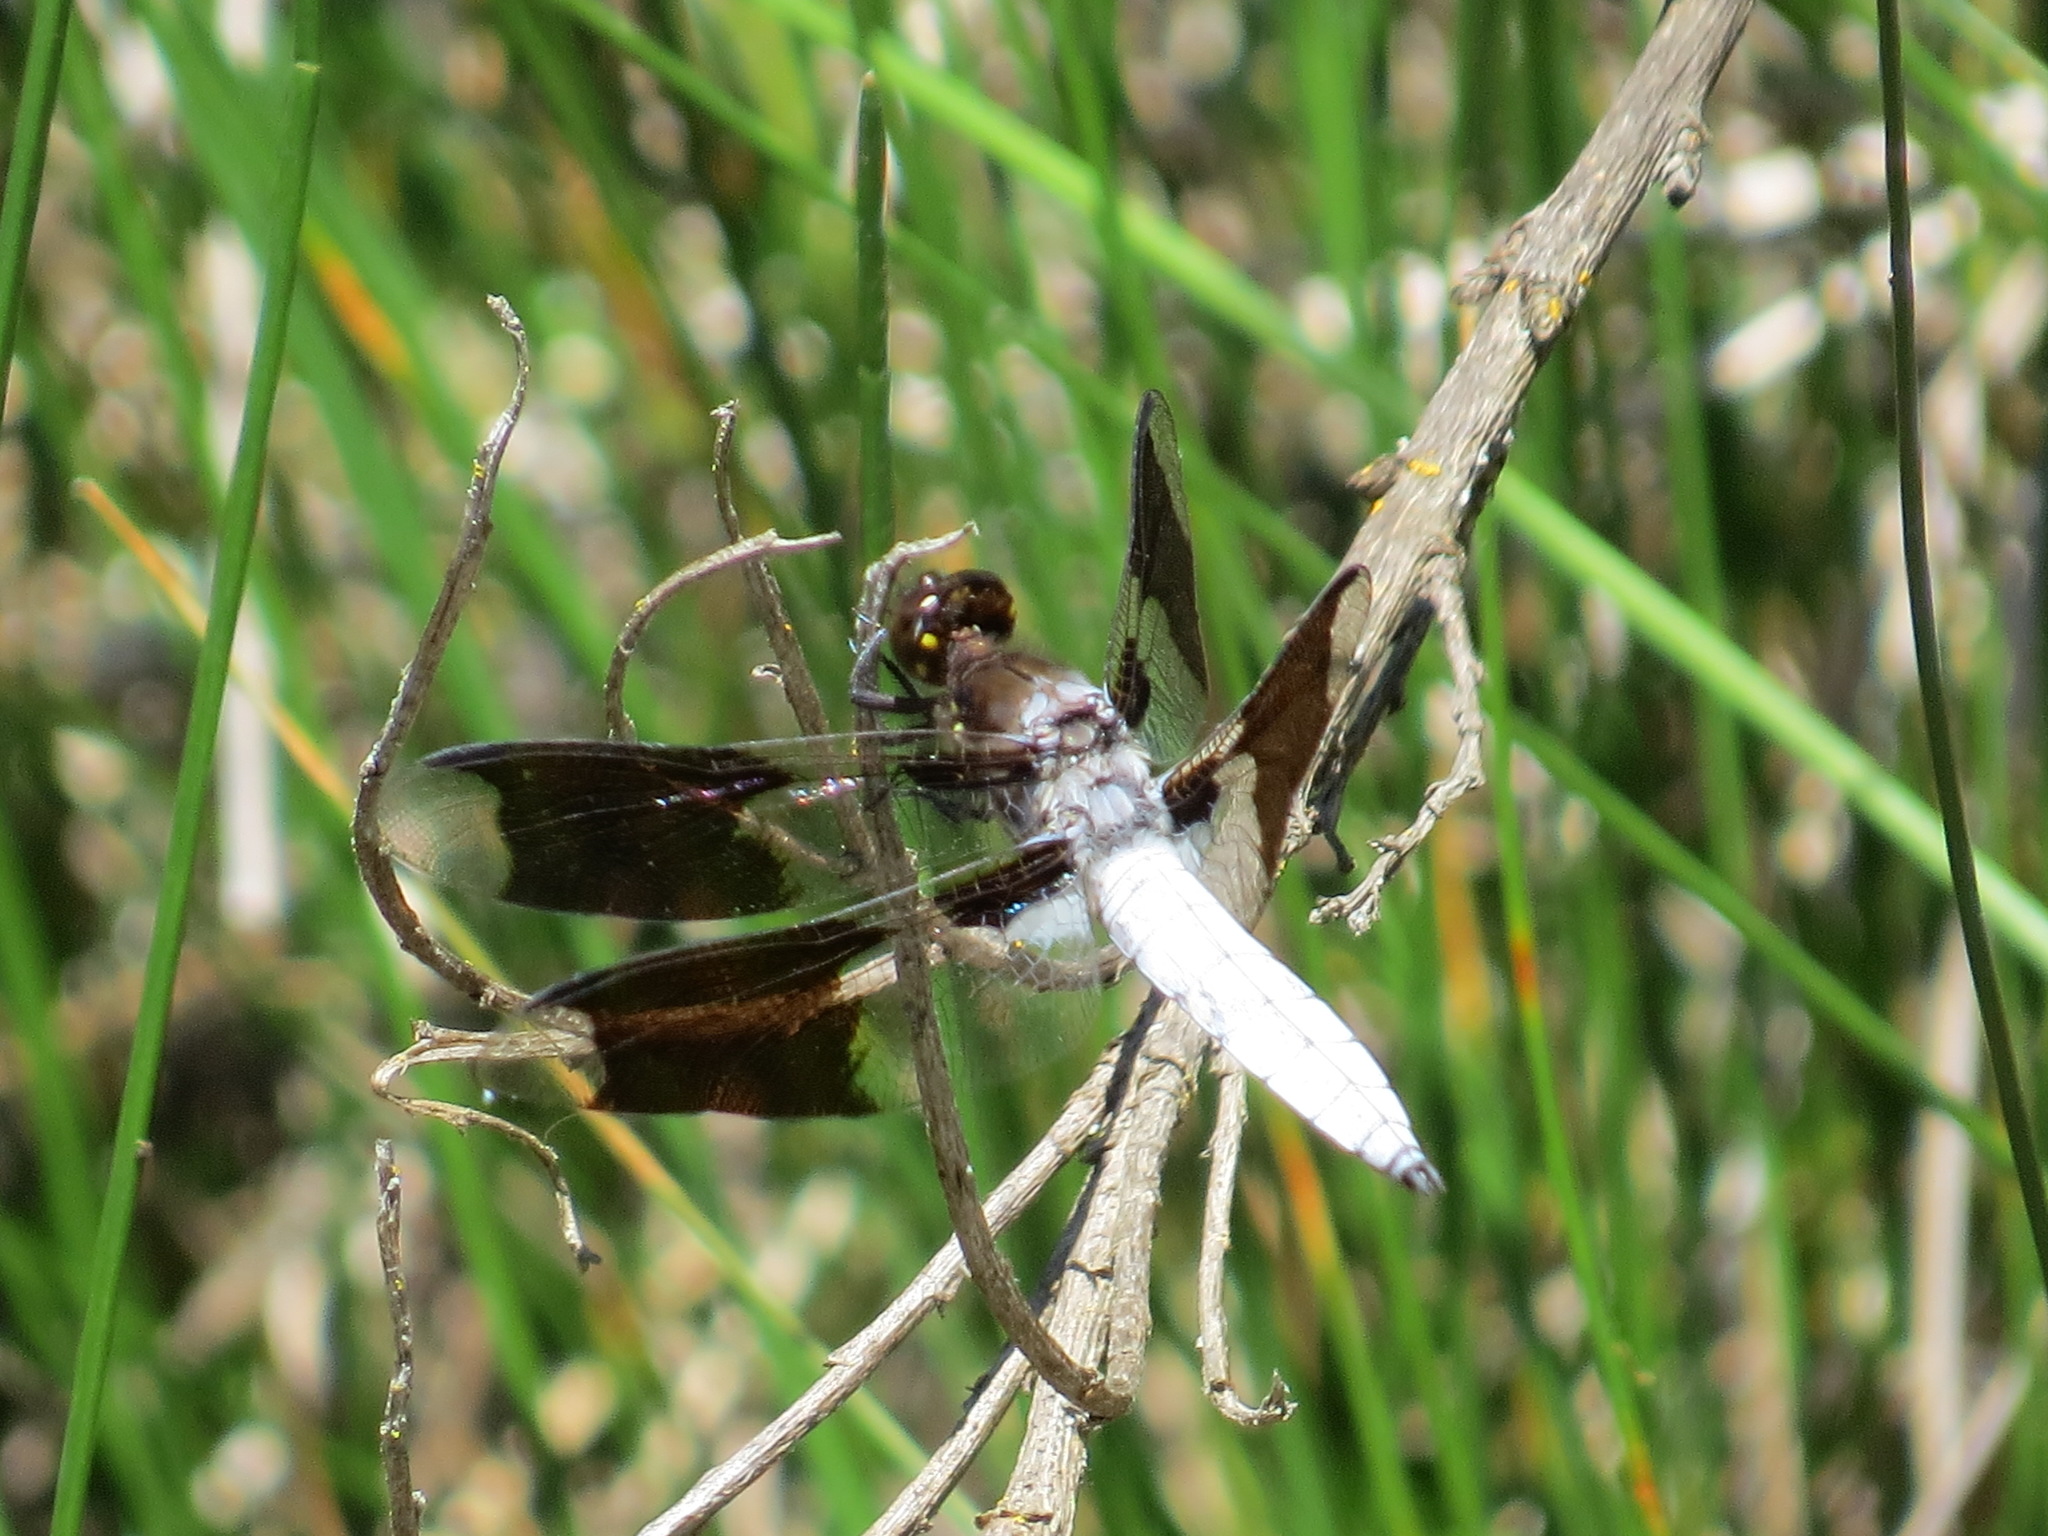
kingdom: Animalia
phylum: Arthropoda
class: Insecta
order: Odonata
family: Libellulidae
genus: Plathemis
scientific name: Plathemis lydia
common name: Common whitetail
